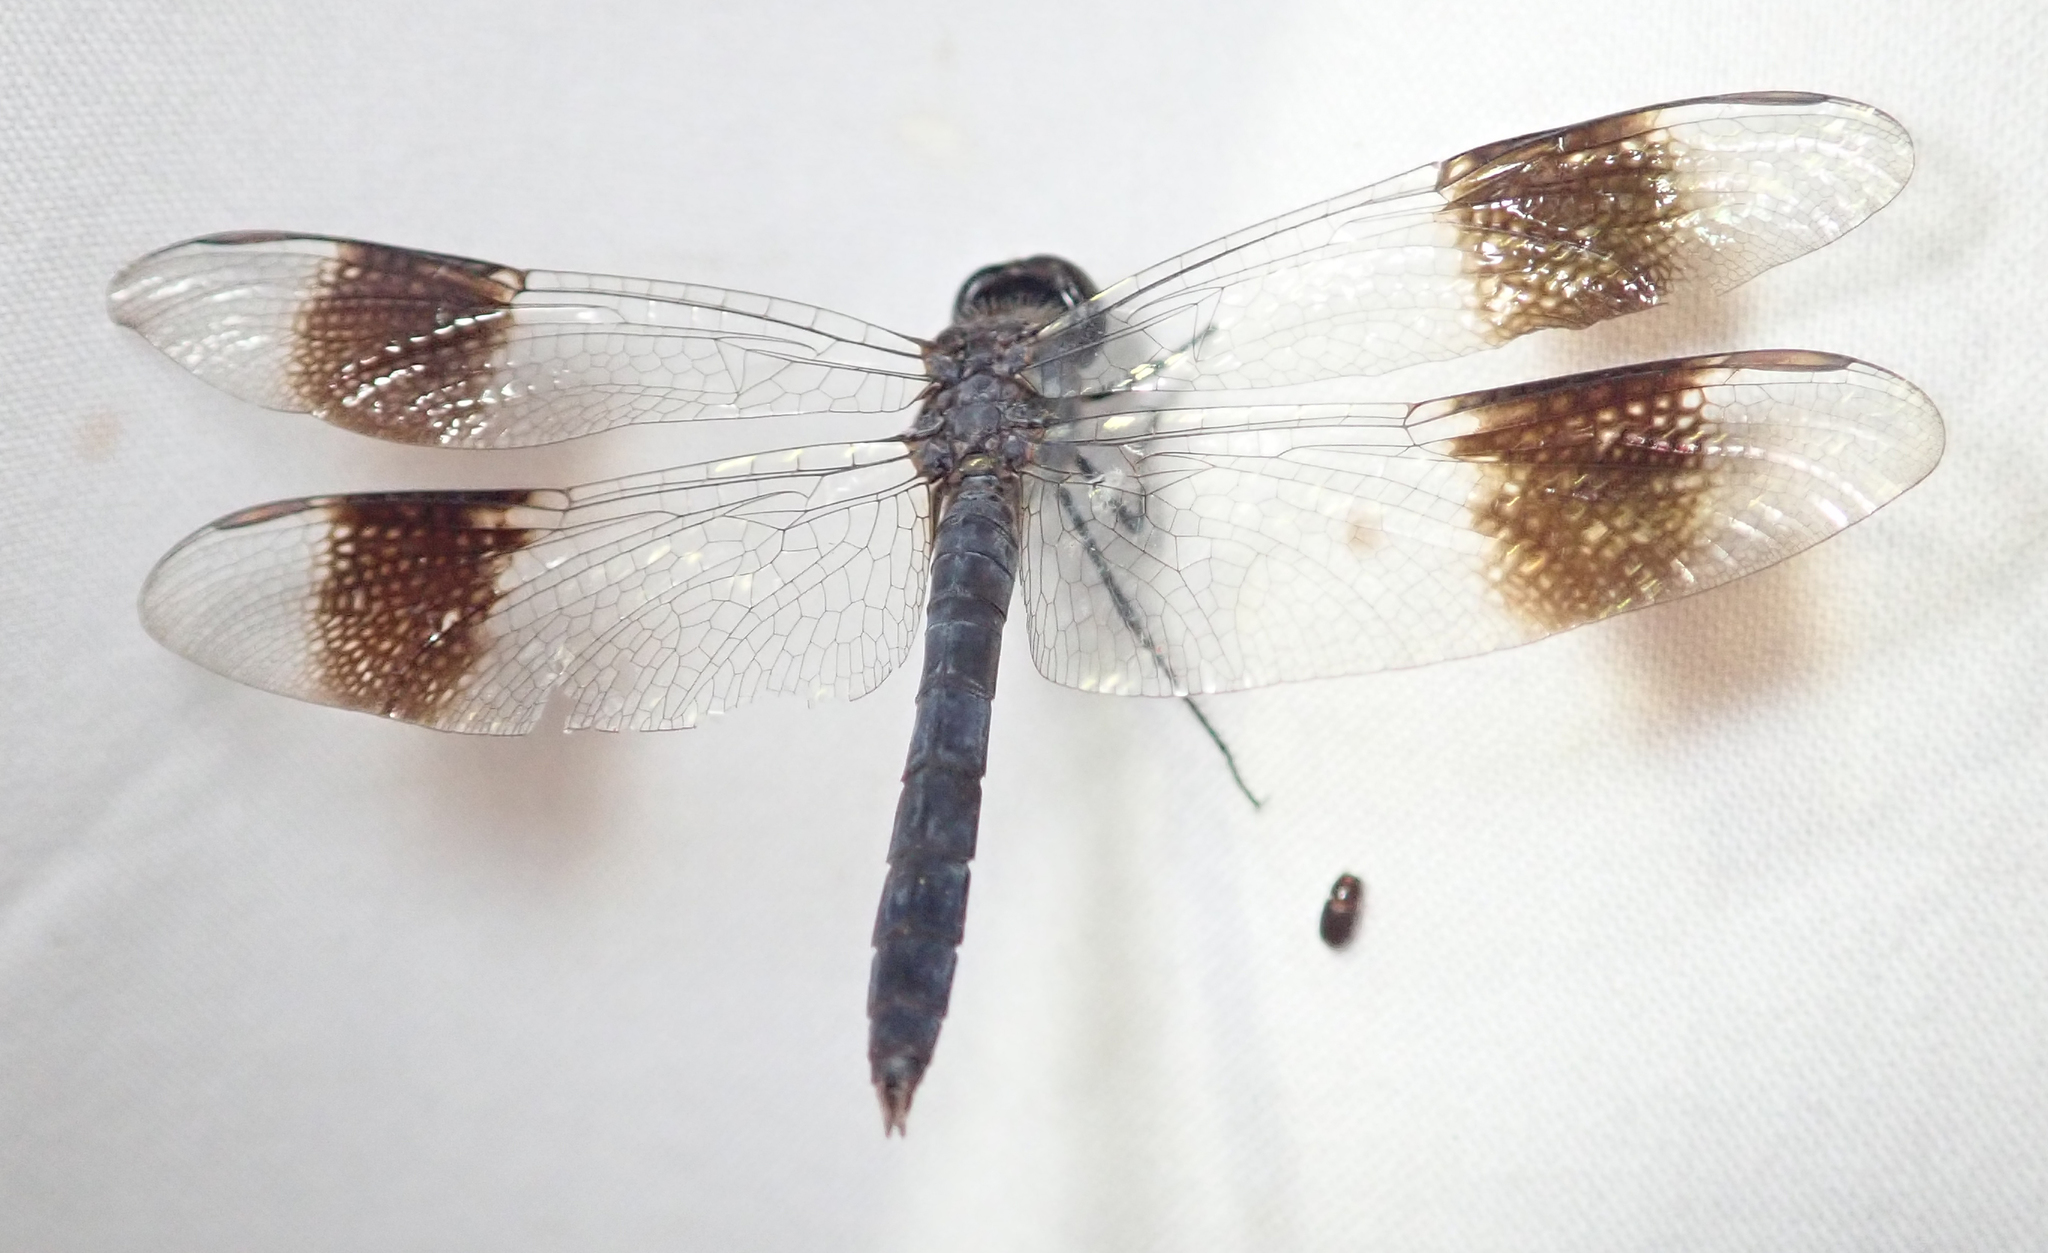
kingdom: Animalia
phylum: Arthropoda
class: Insecta
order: Odonata
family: Libellulidae
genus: Brachythemis
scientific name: Brachythemis leucosticta
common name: Banded groundling
